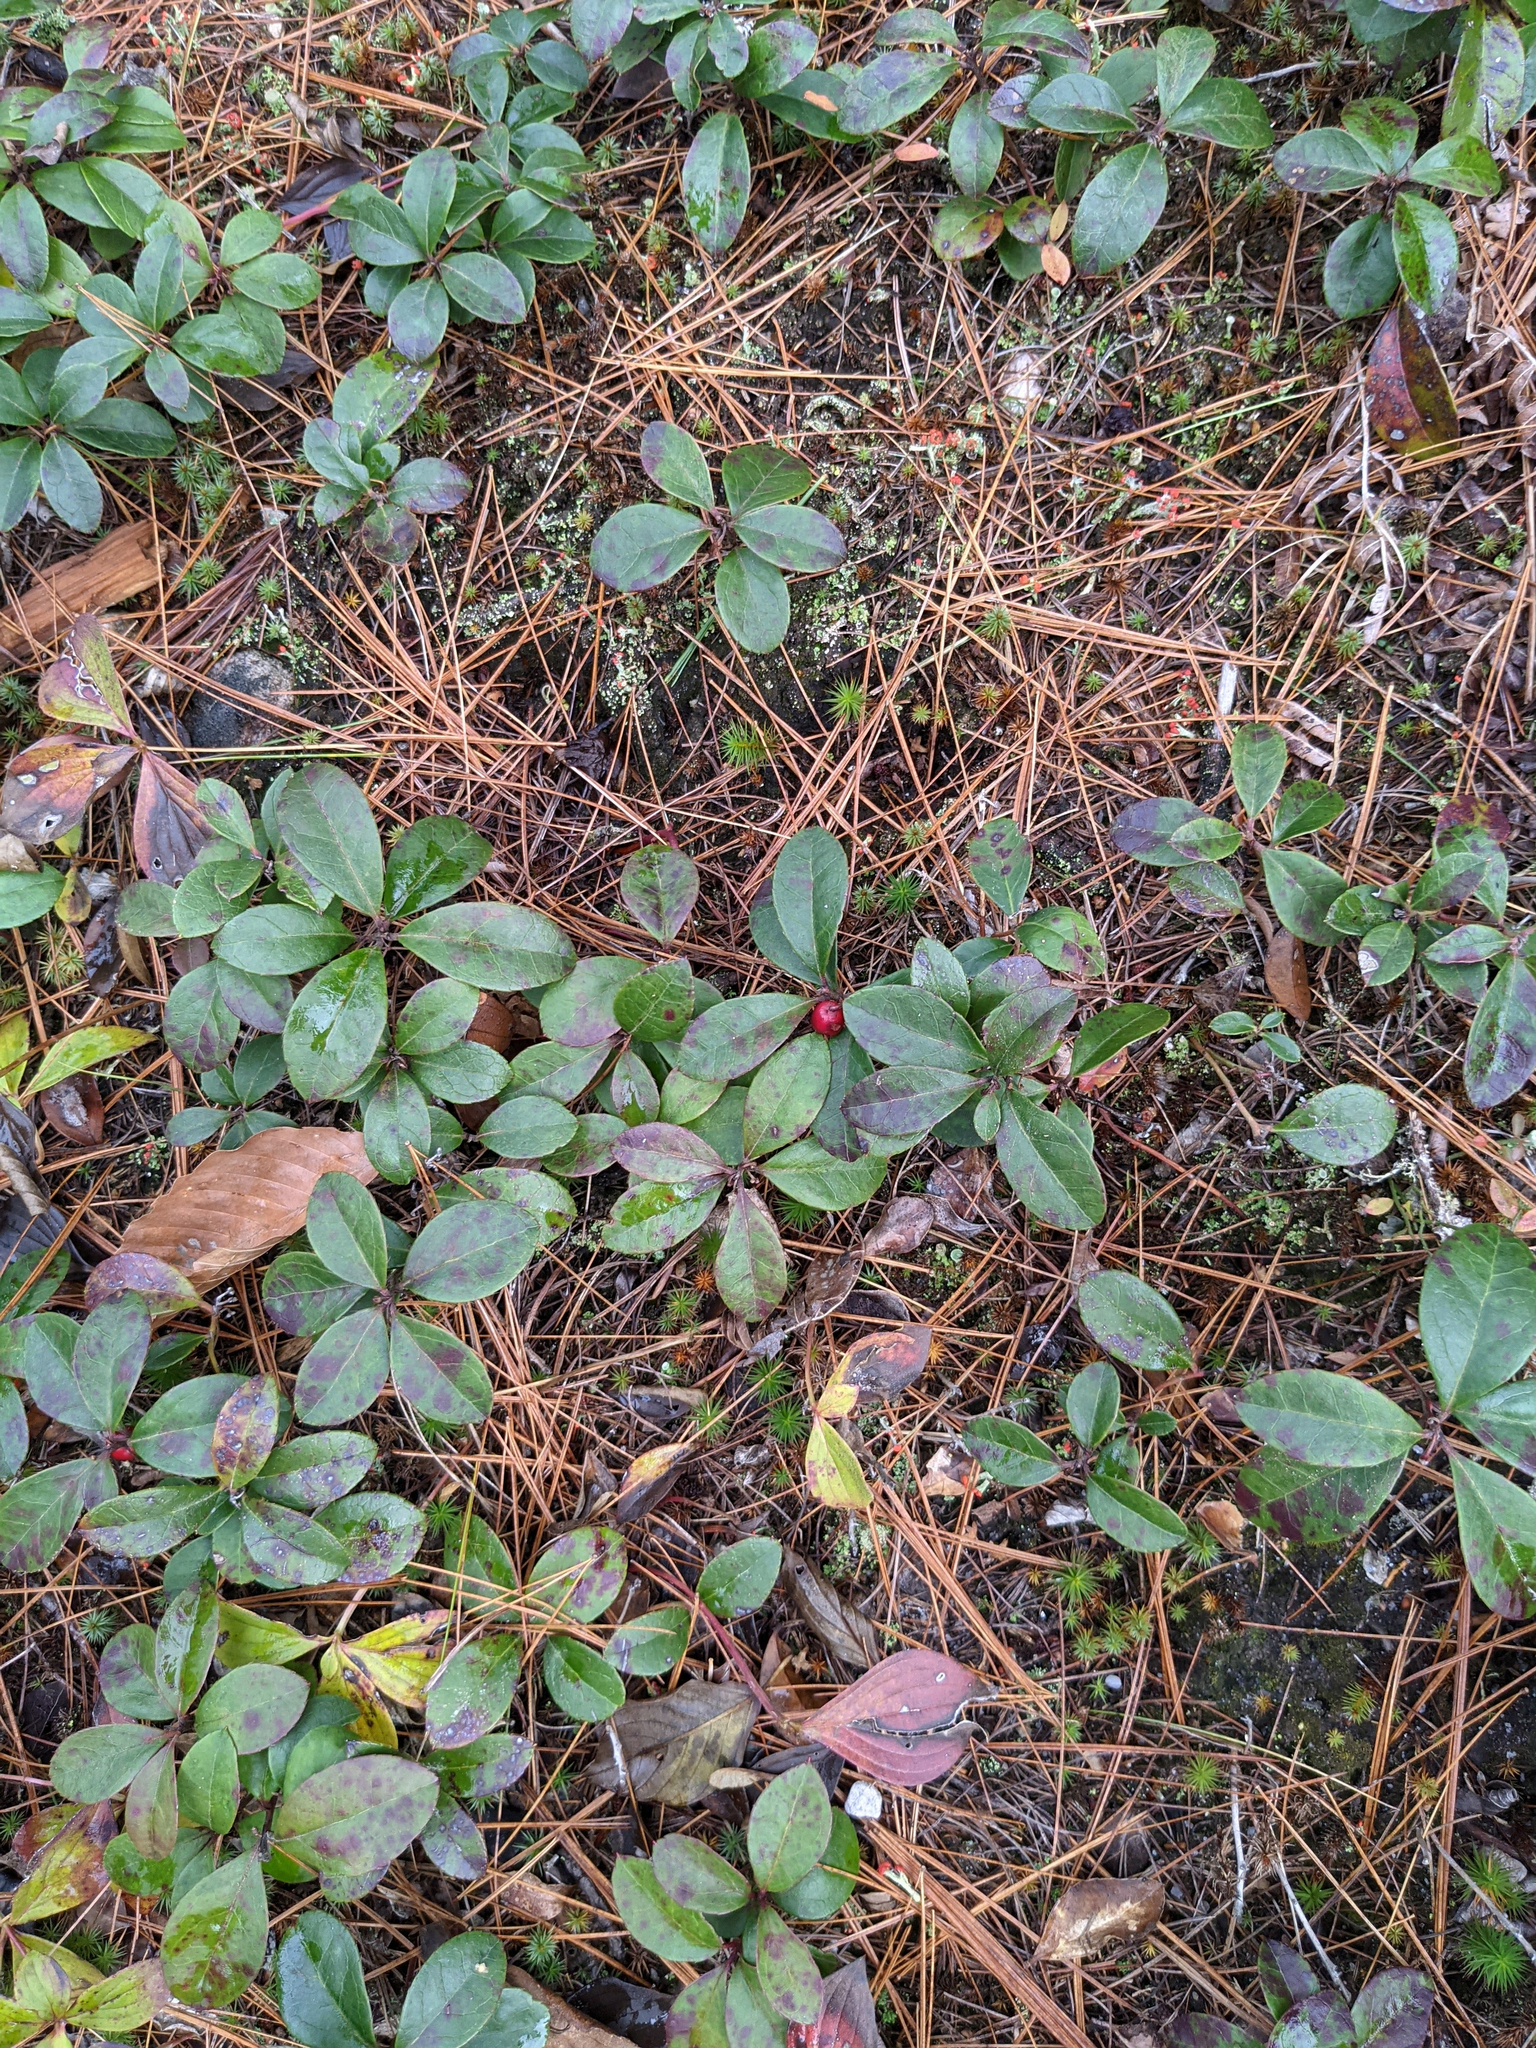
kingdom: Plantae
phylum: Tracheophyta
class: Magnoliopsida
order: Ericales
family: Ericaceae
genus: Gaultheria
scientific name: Gaultheria procumbens
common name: Checkerberry
